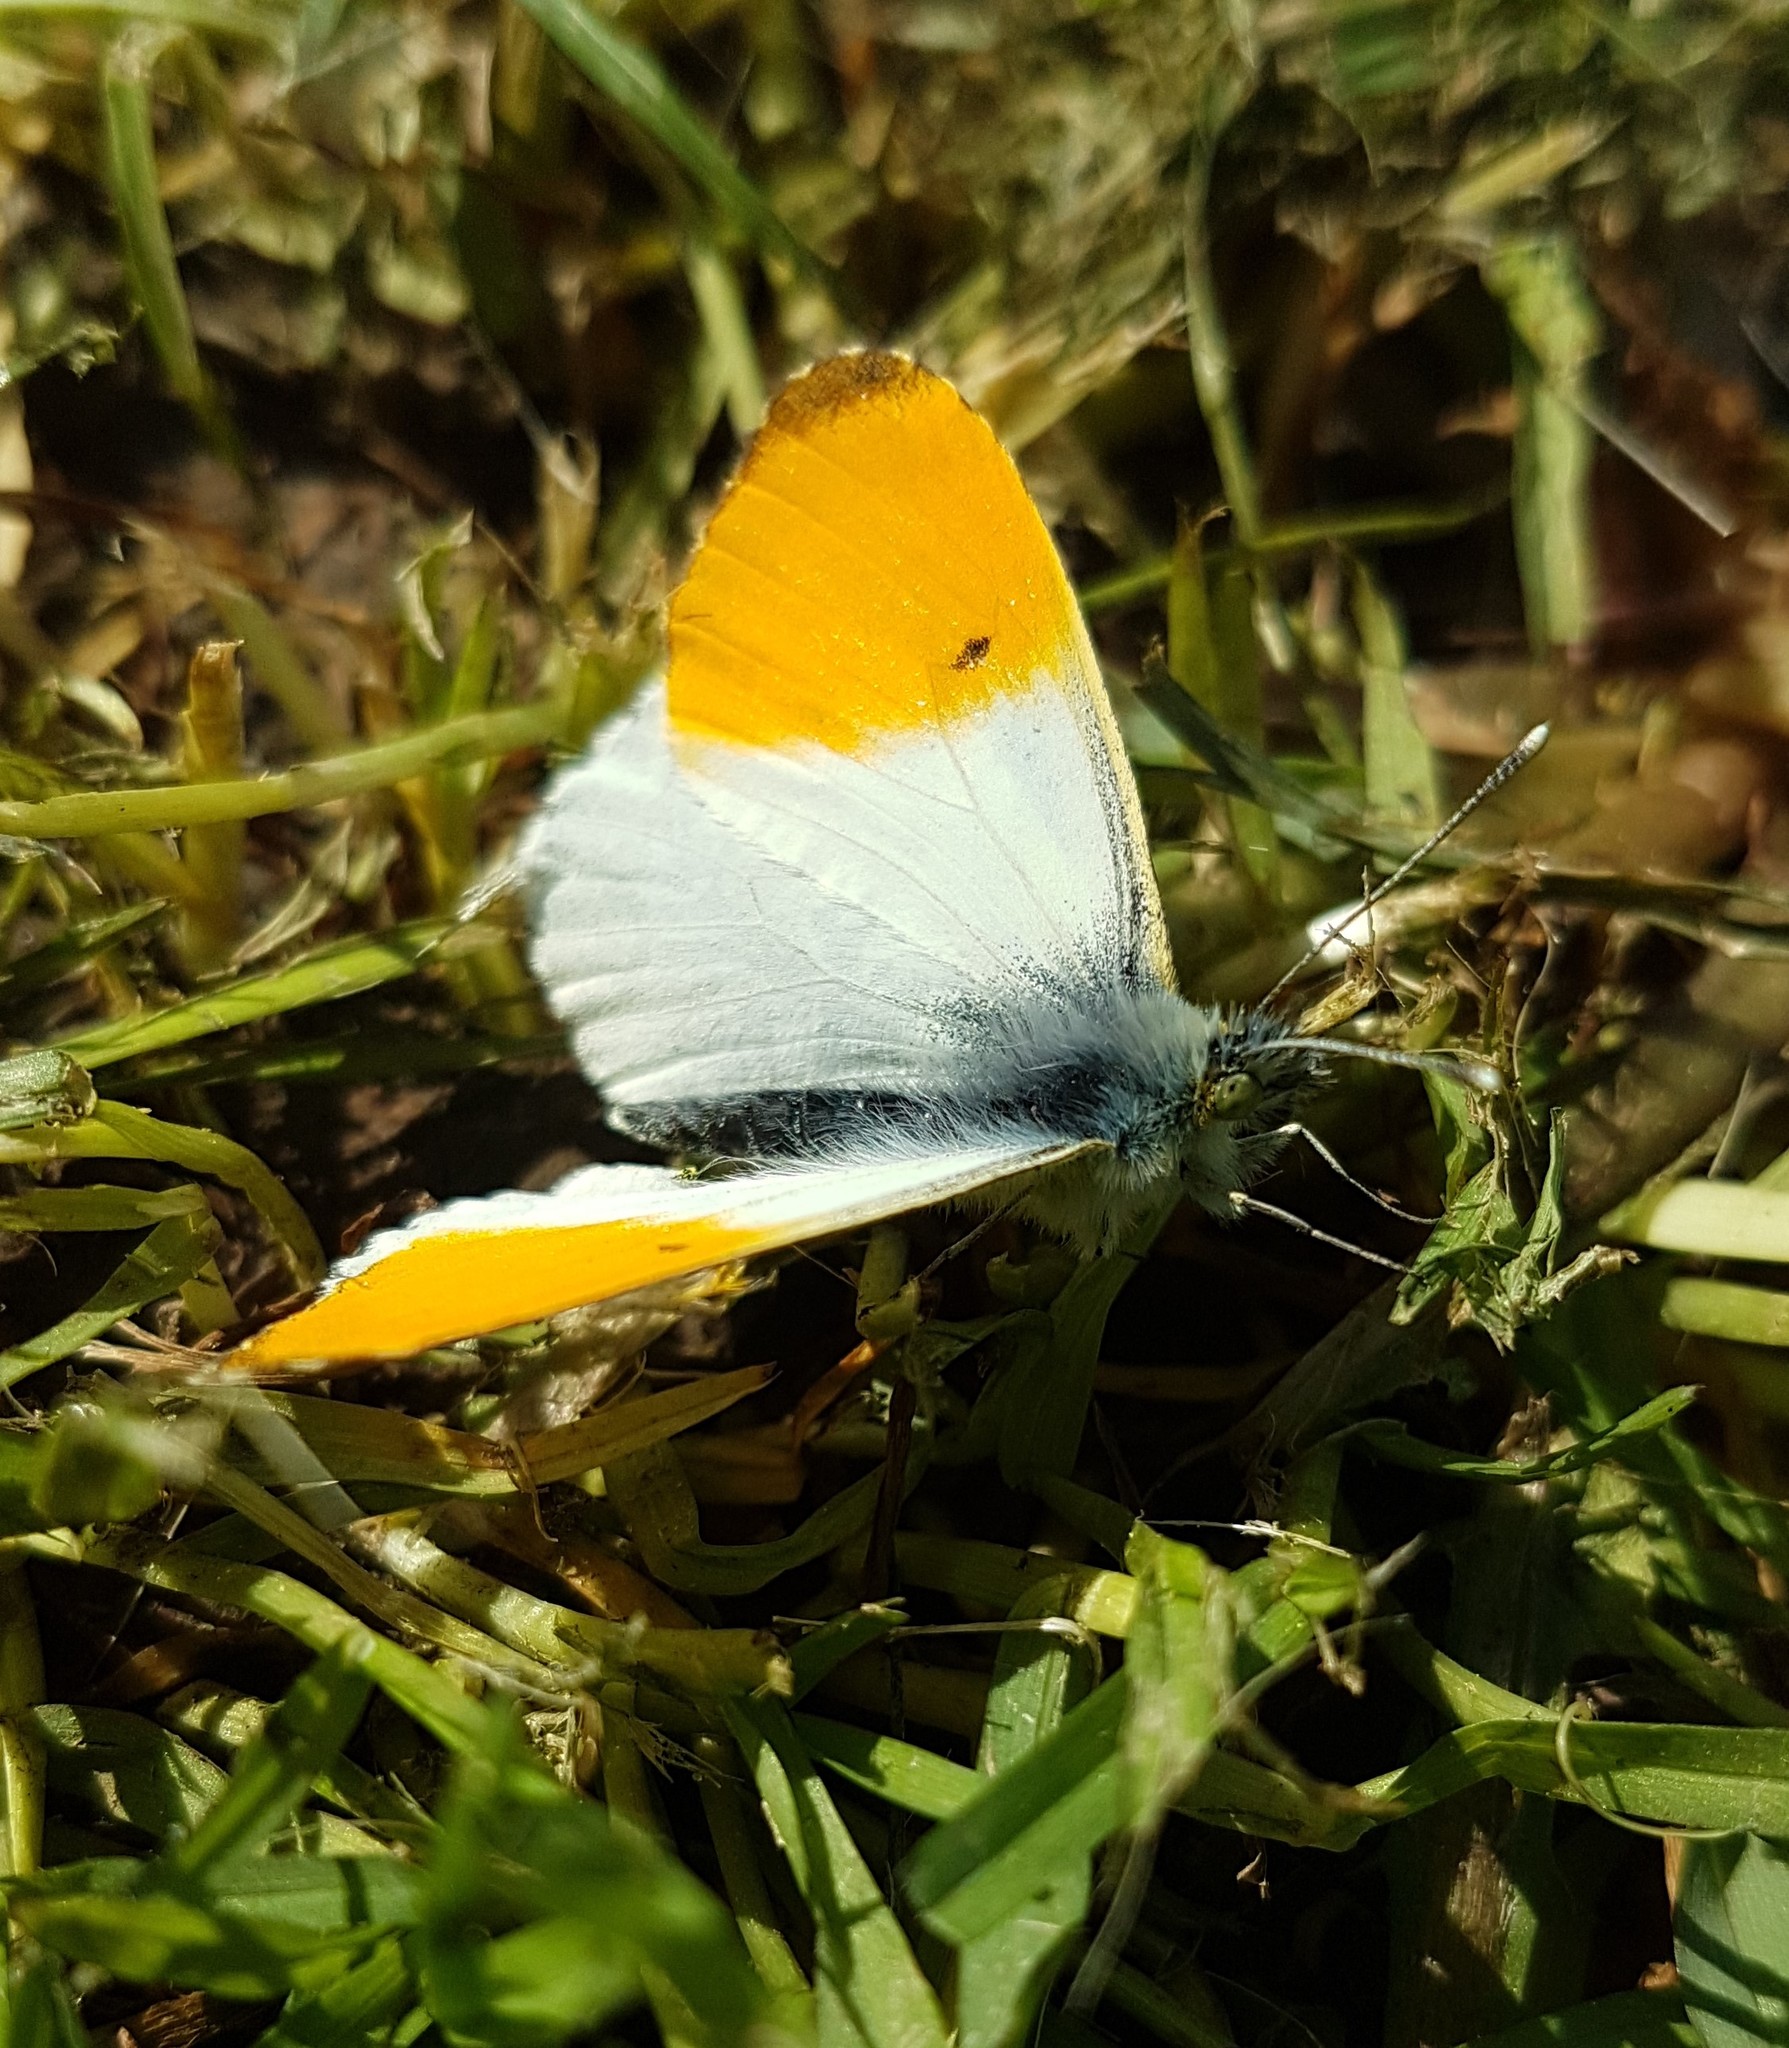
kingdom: Animalia
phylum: Arthropoda
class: Insecta
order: Lepidoptera
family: Pieridae
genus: Anthocharis
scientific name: Anthocharis cardamines
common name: Orange-tip
